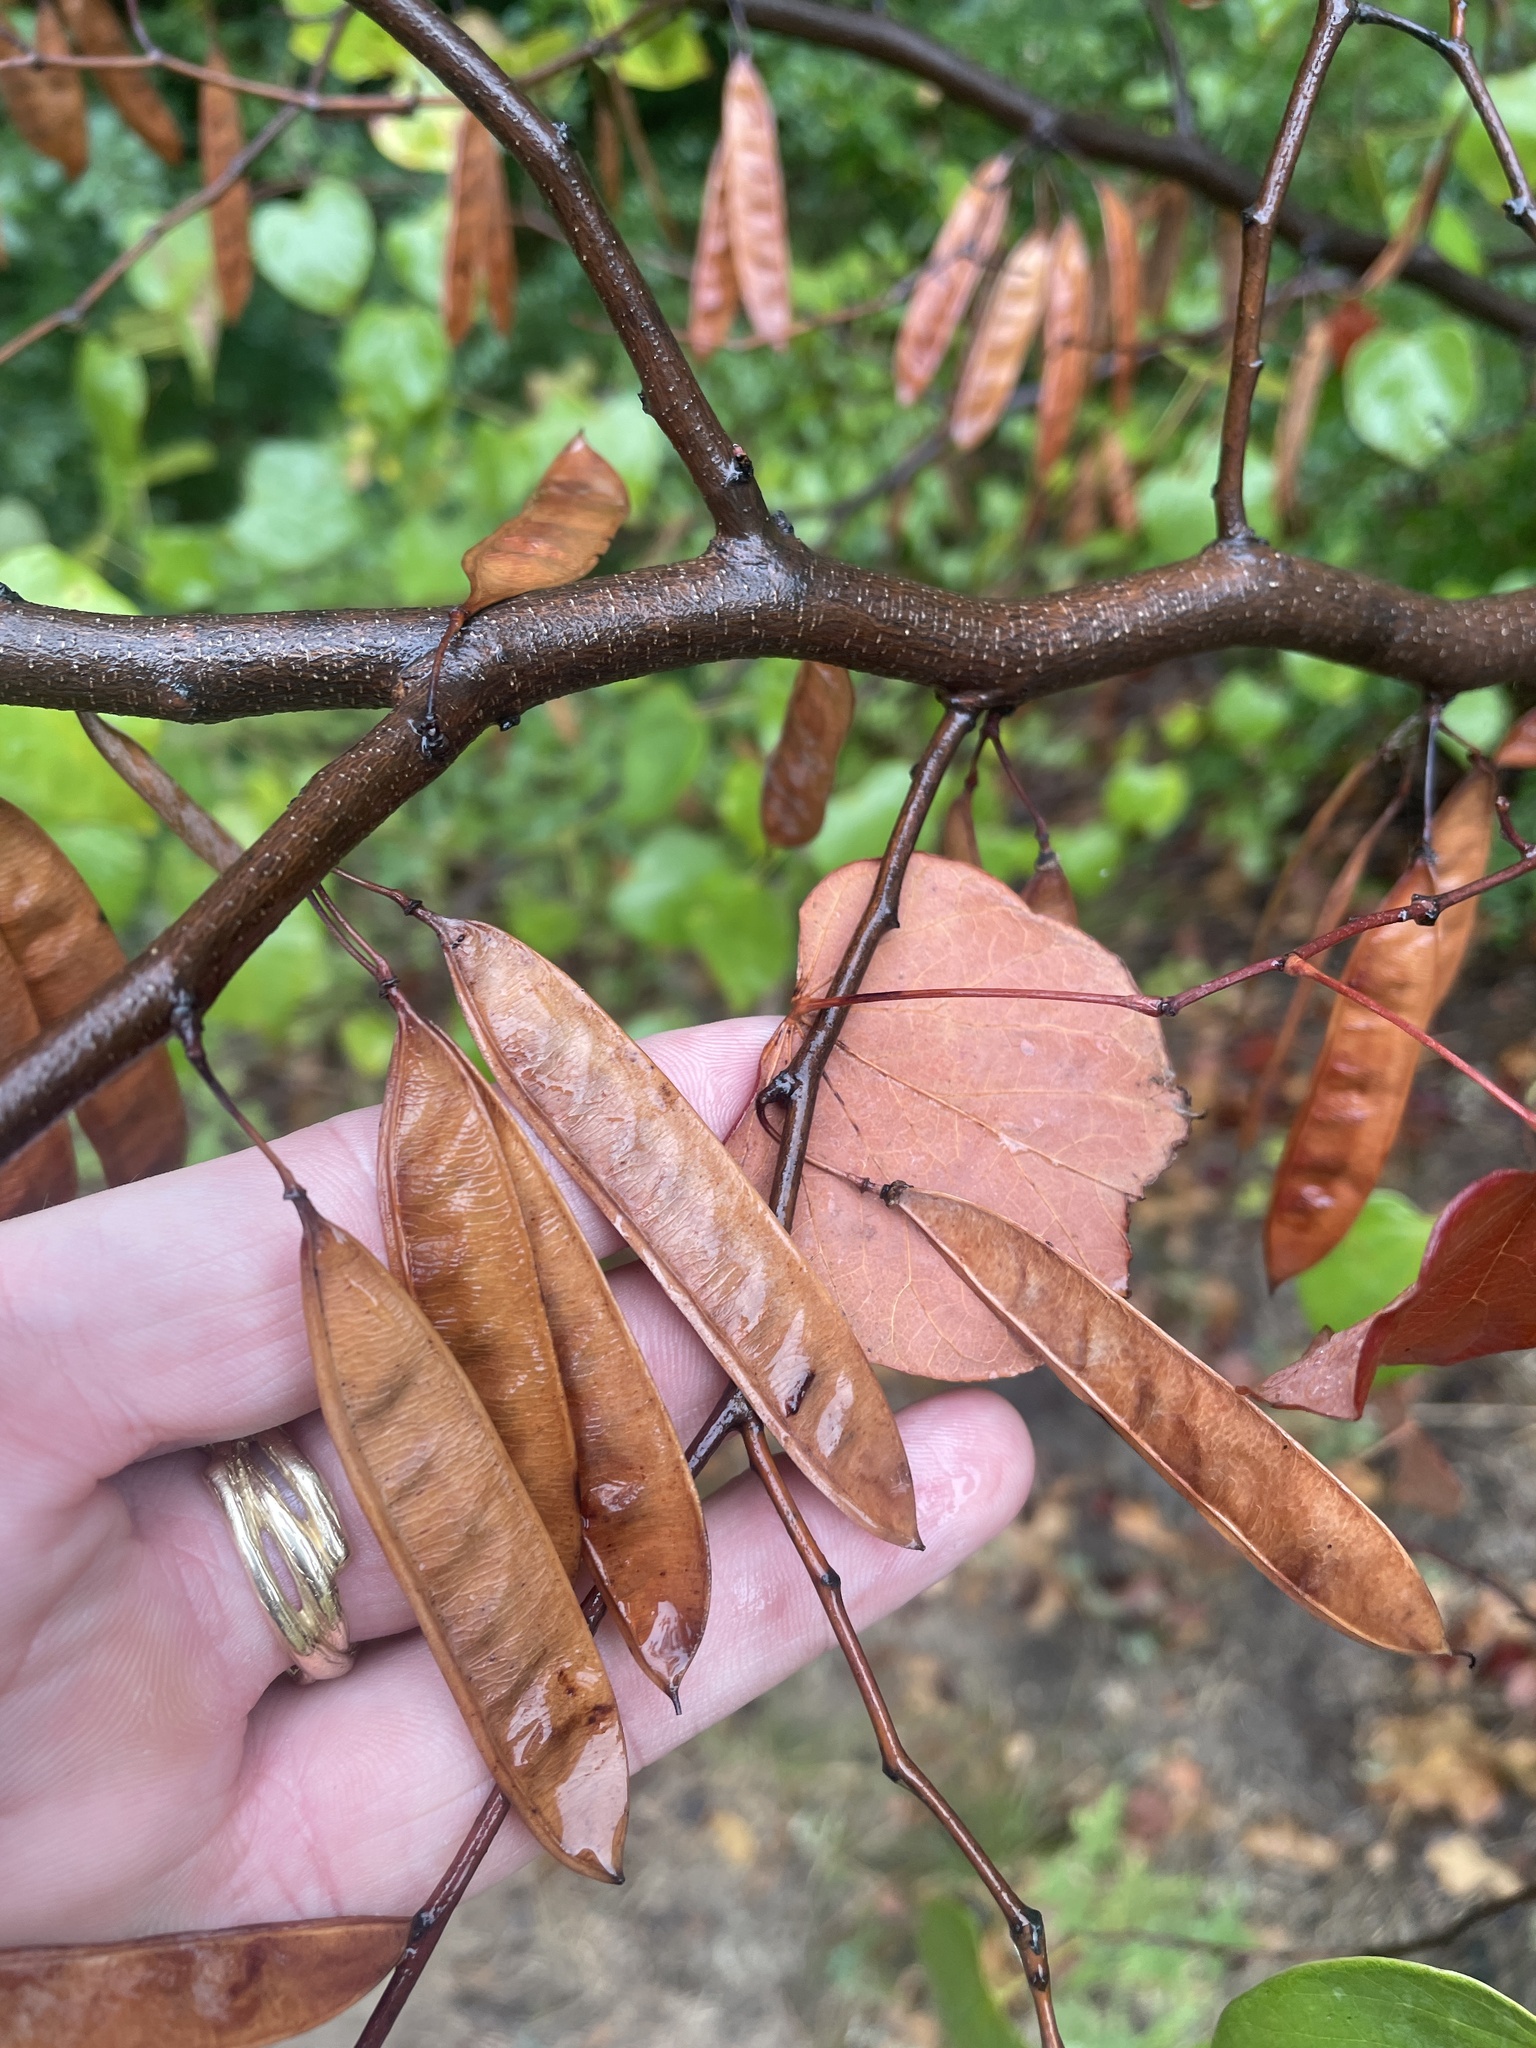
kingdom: Plantae
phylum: Tracheophyta
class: Magnoliopsida
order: Fabales
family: Fabaceae
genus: Cercis
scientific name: Cercis canadensis
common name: Eastern redbud
